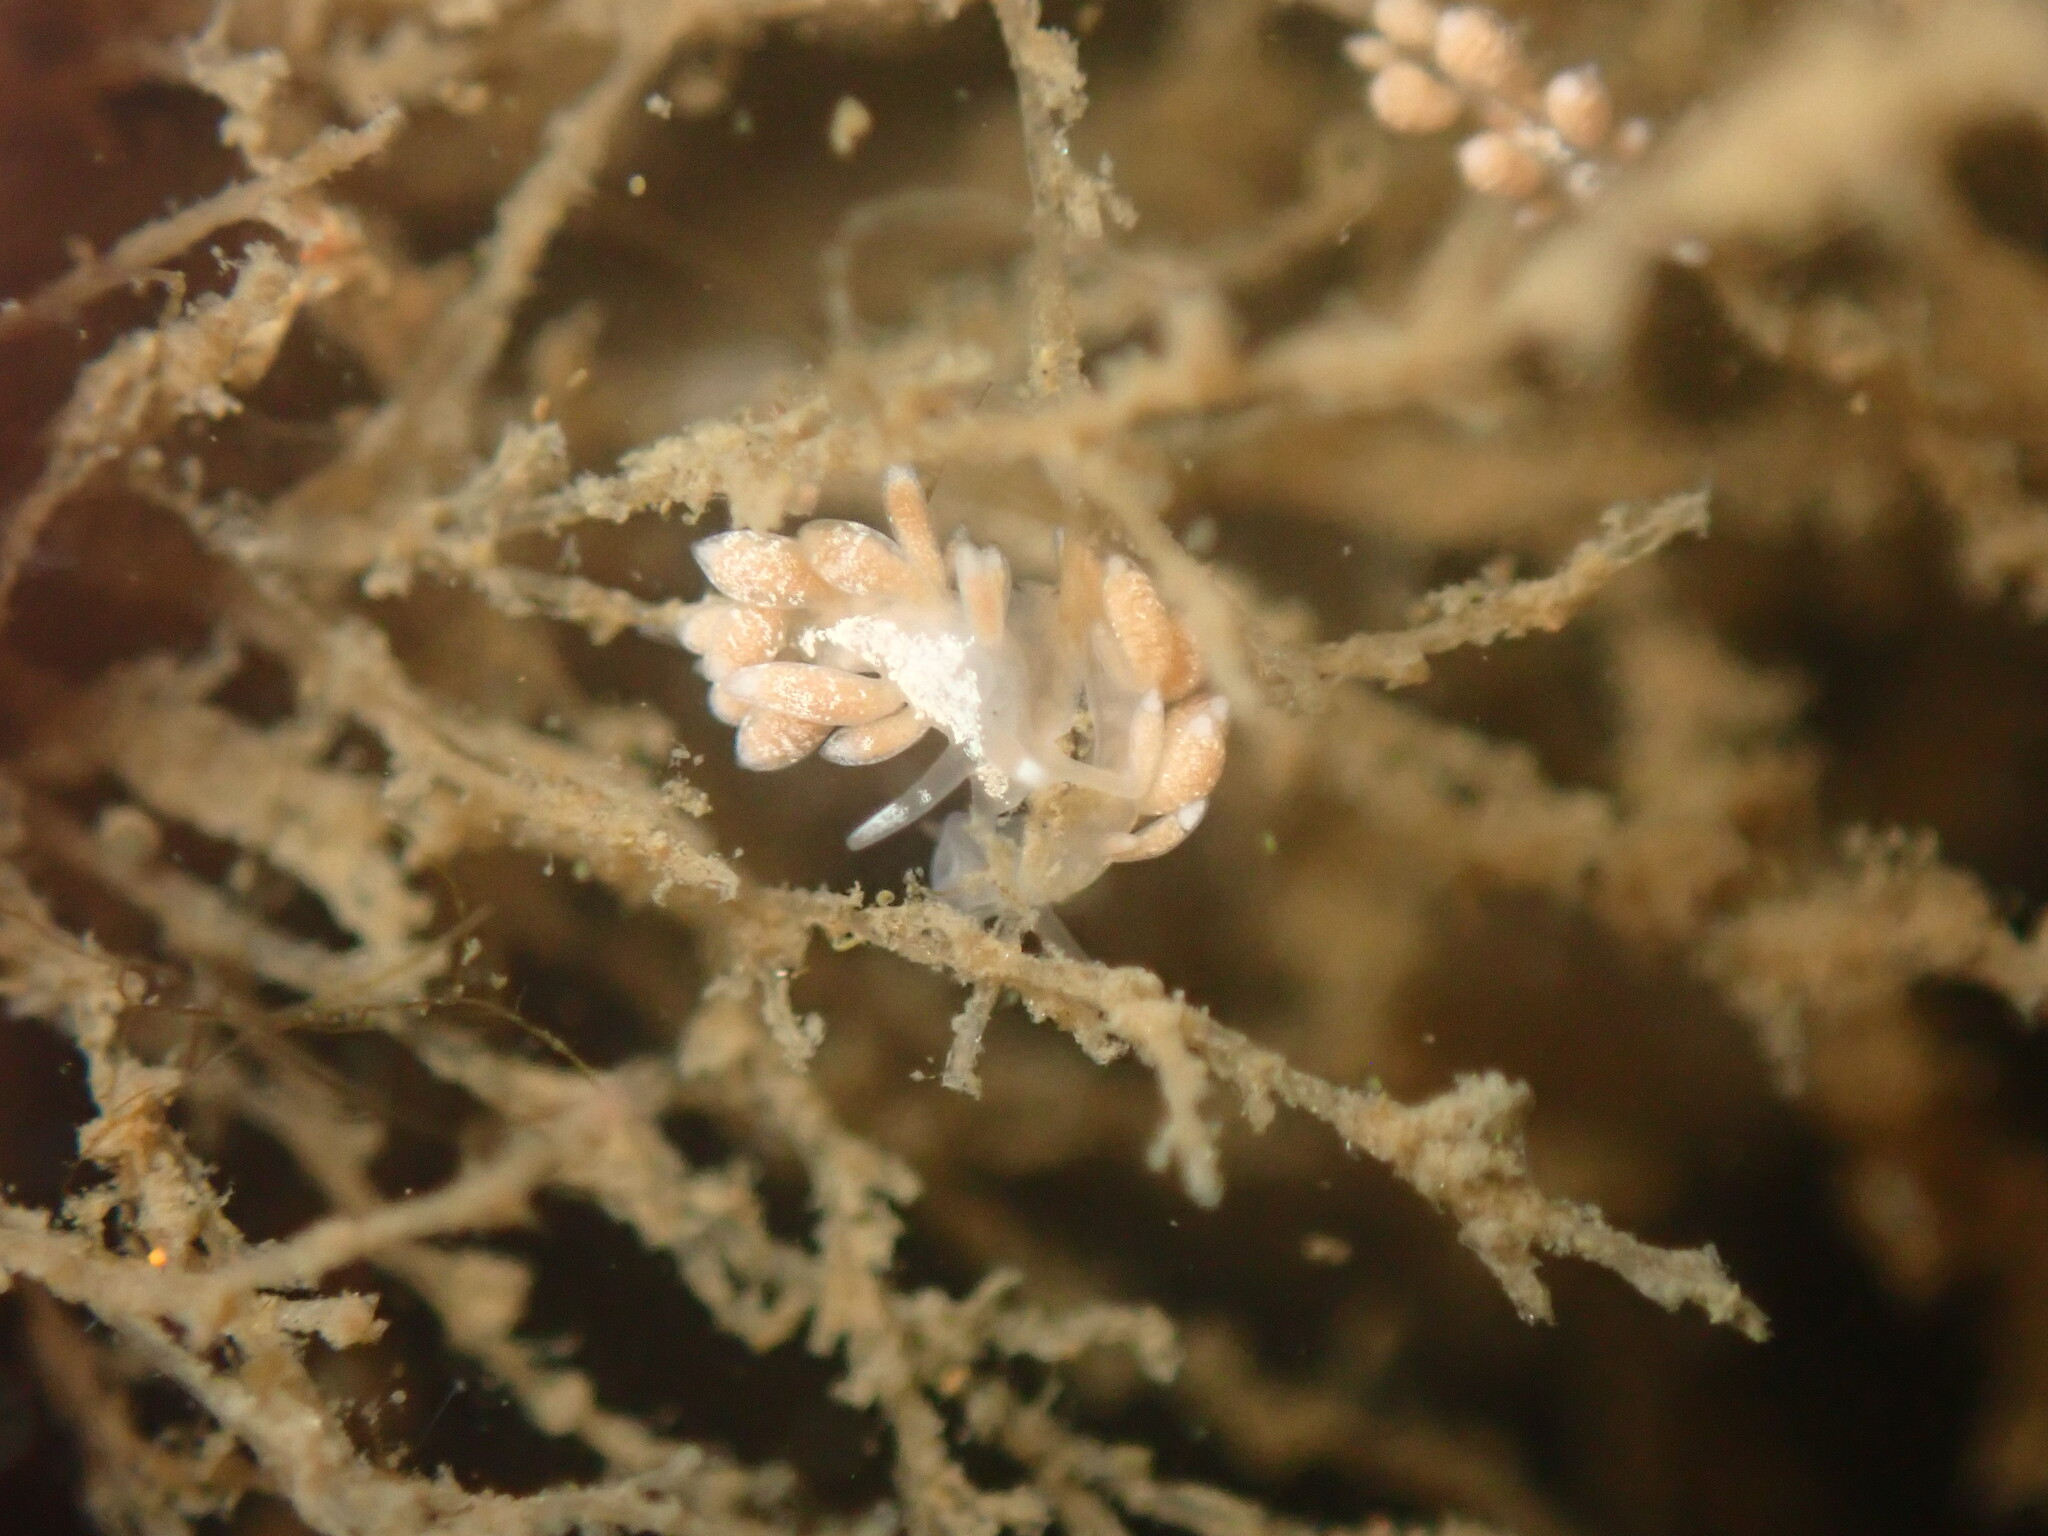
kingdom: Animalia
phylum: Mollusca
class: Gastropoda
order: Nudibranchia
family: Trinchesiidae
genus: Trinchesia
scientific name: Trinchesia albocrusta
